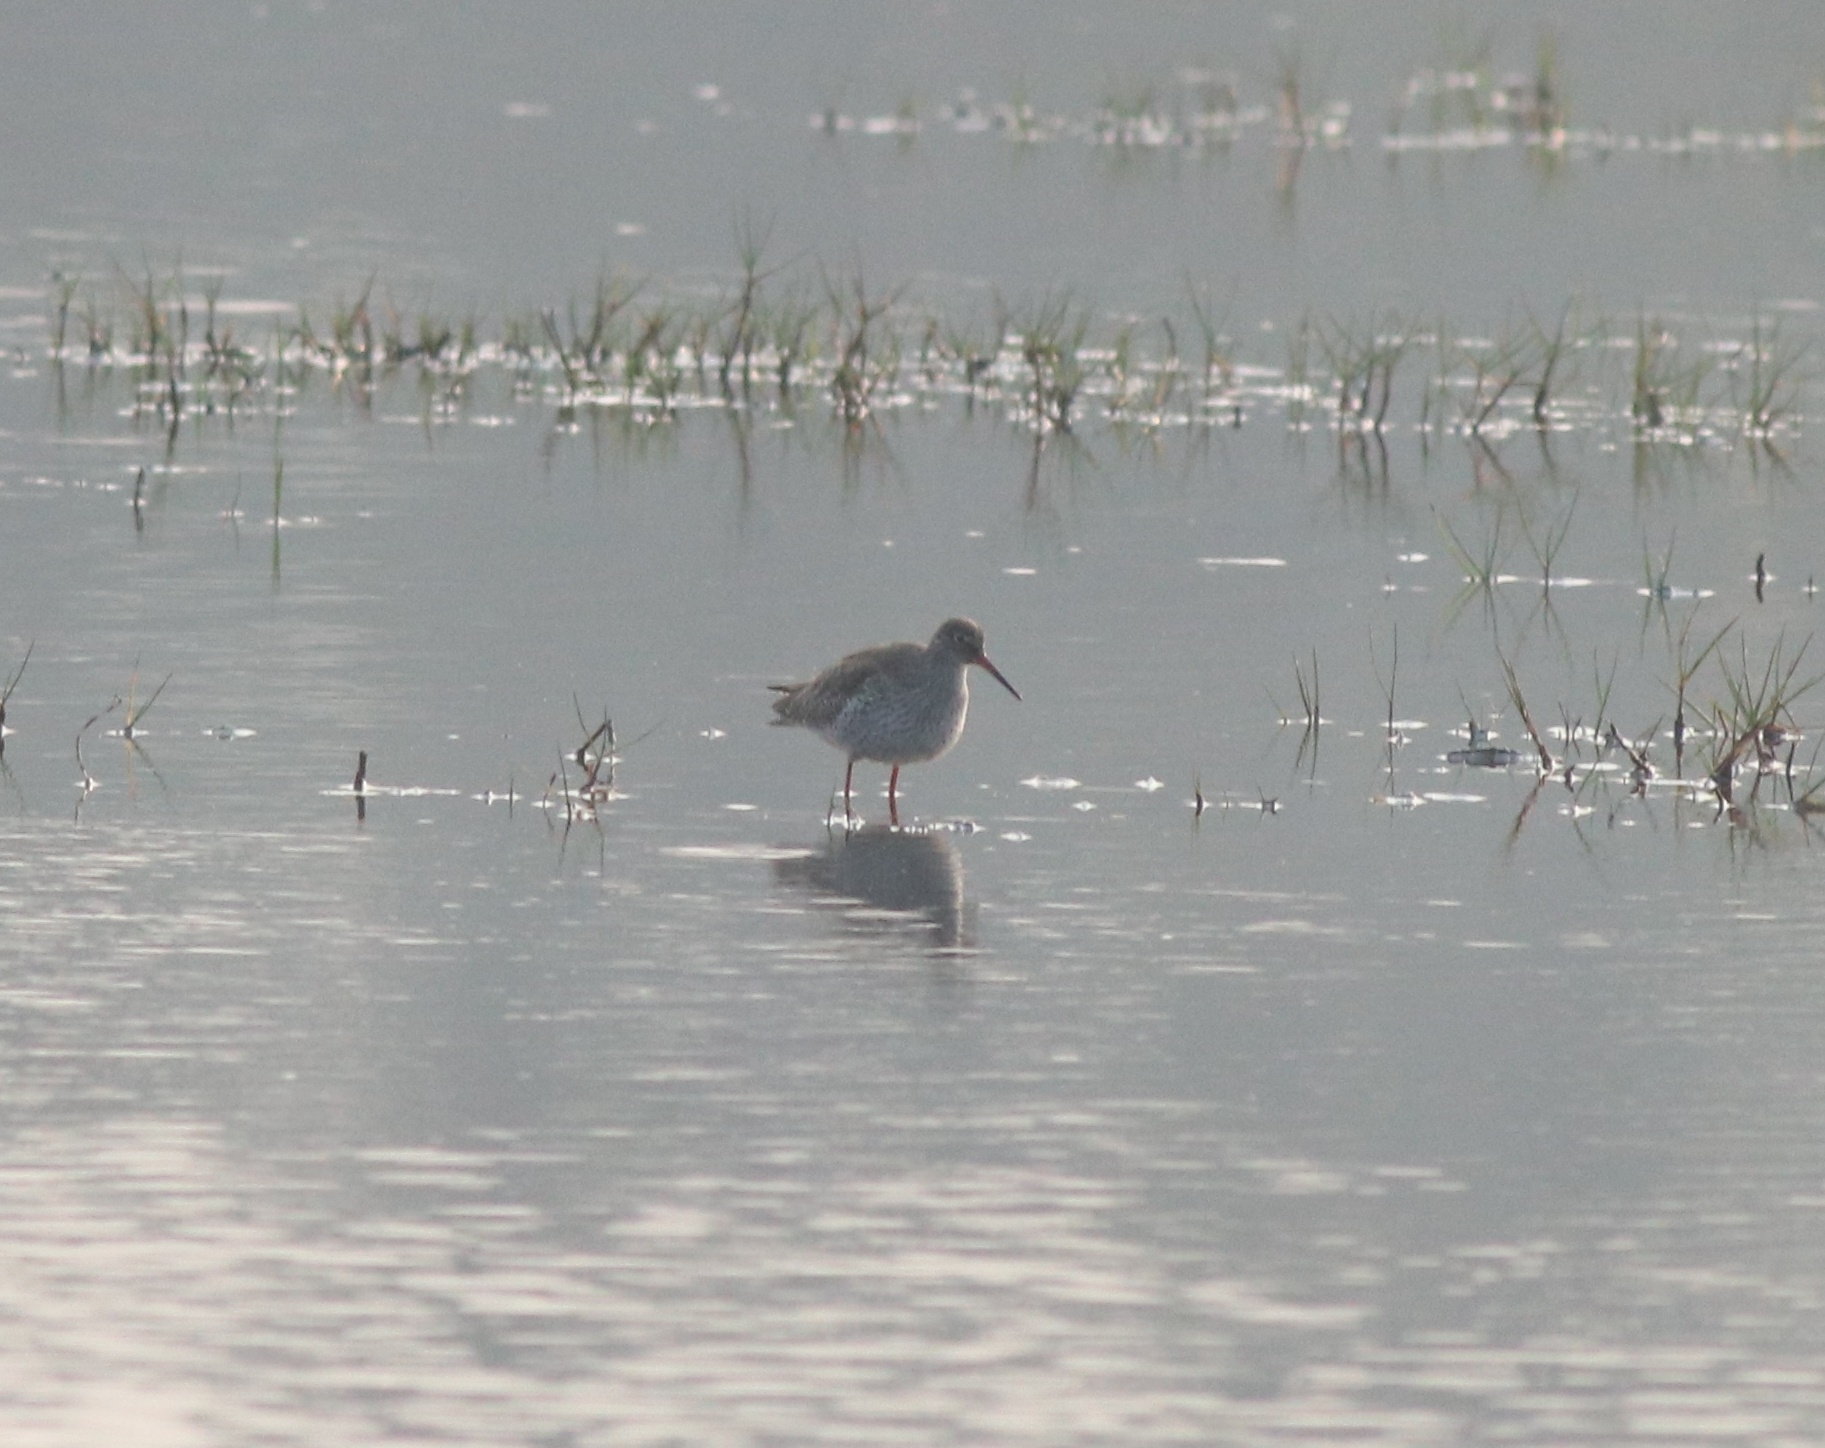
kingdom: Animalia
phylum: Chordata
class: Aves
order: Charadriiformes
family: Scolopacidae
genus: Tringa
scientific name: Tringa totanus
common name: Common redshank
